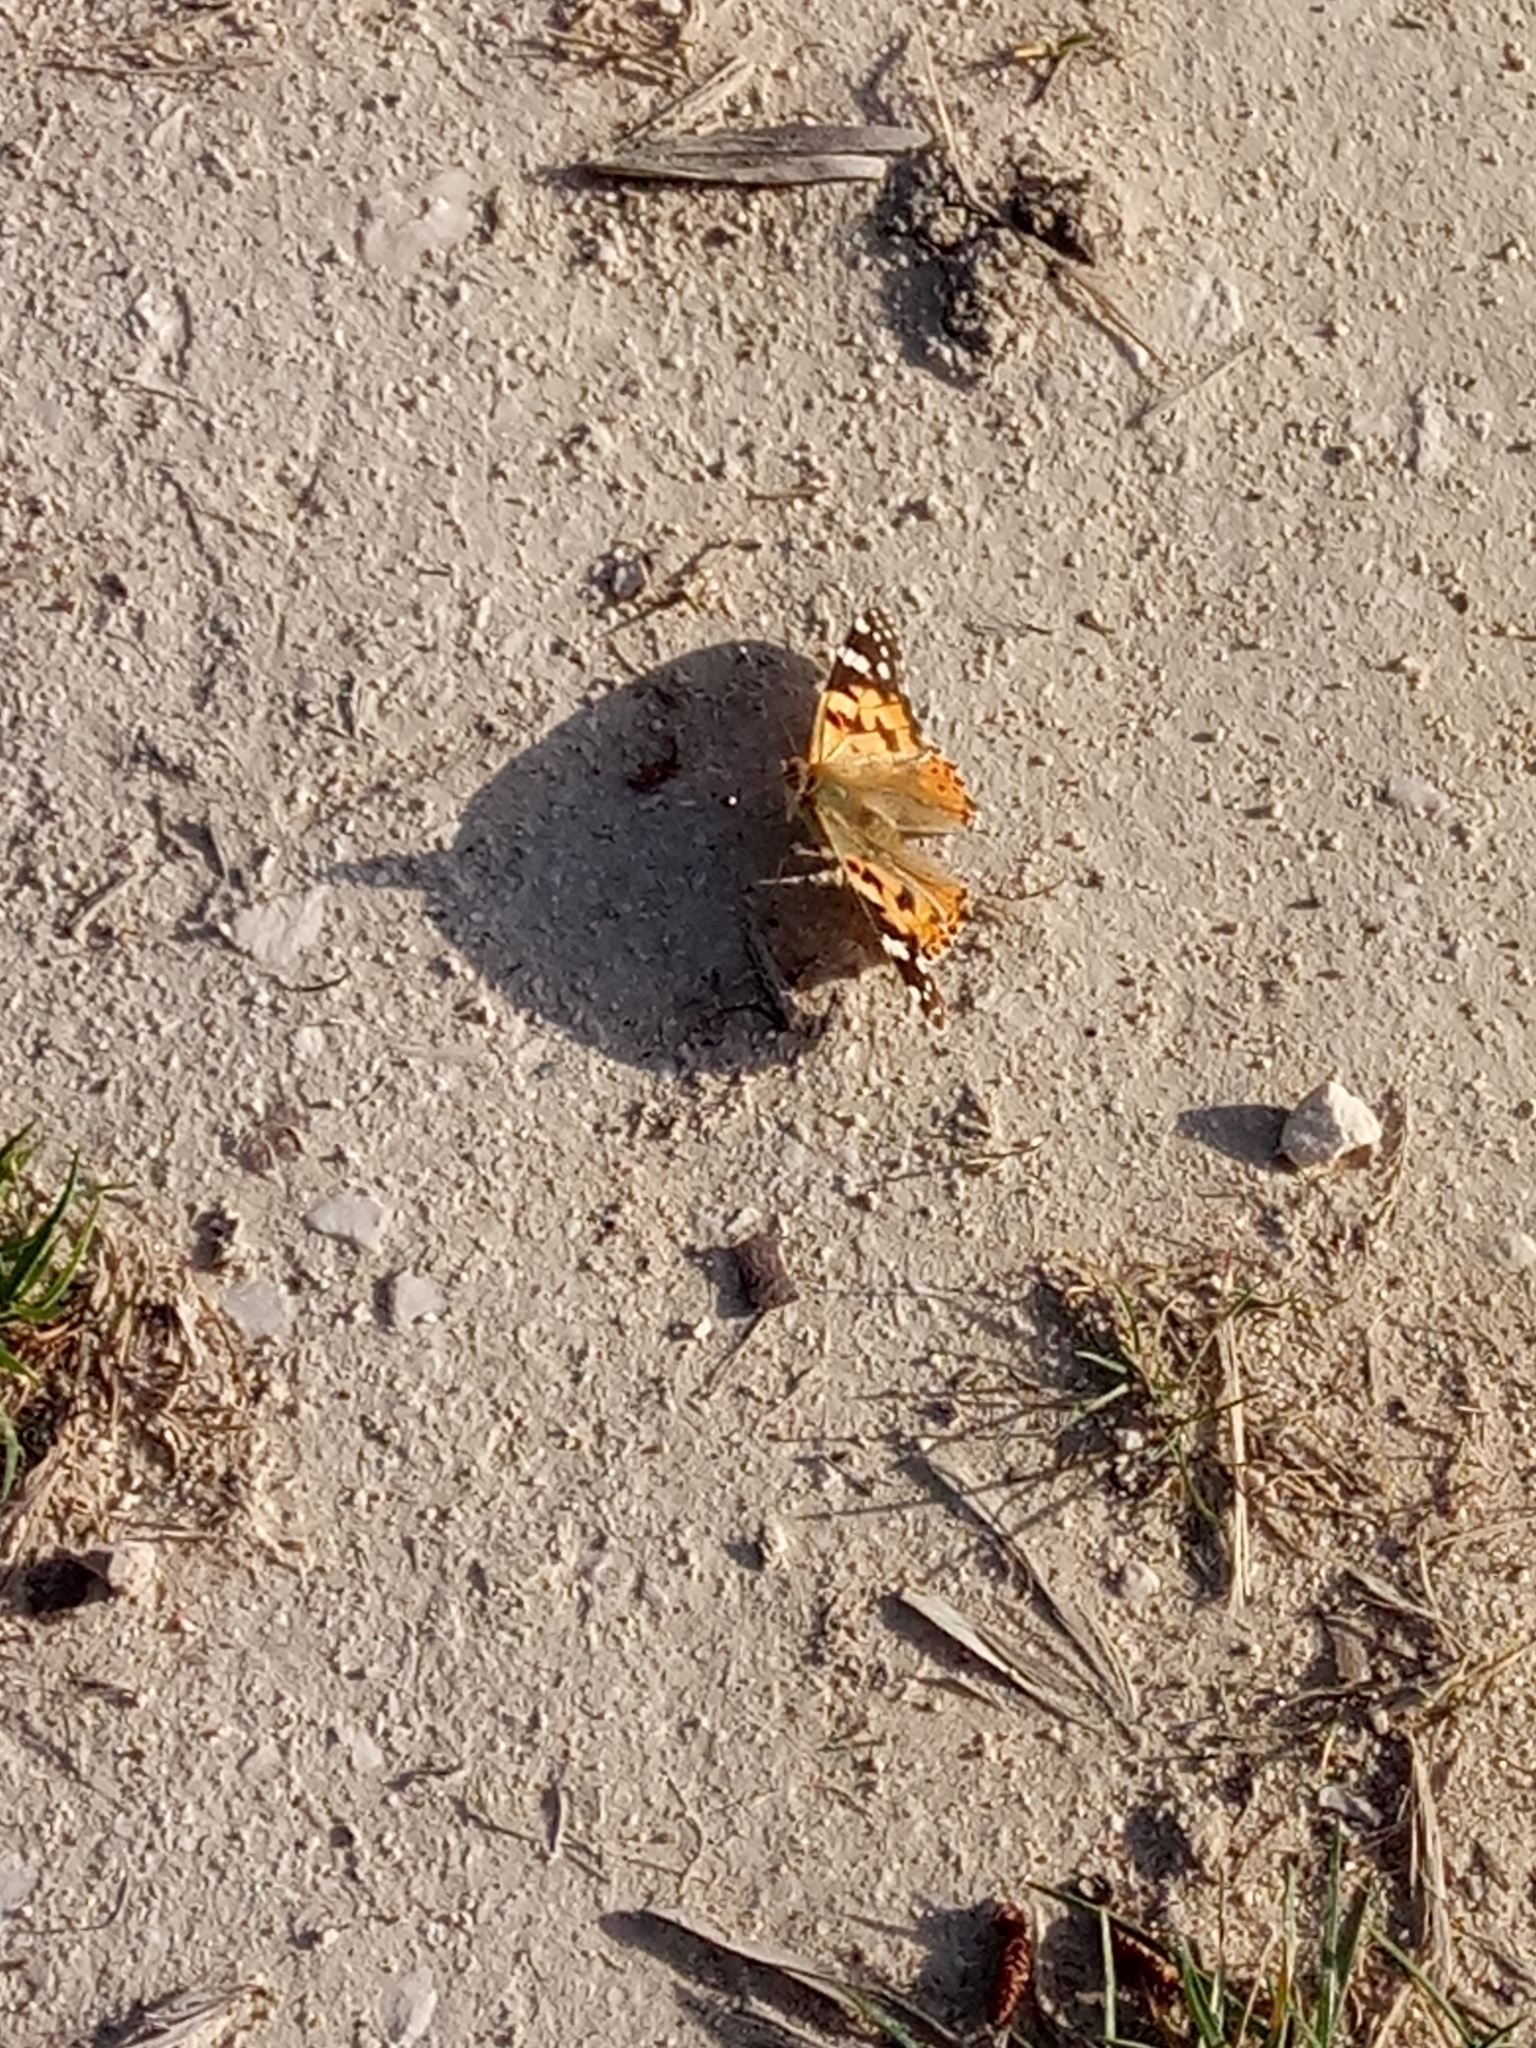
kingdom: Animalia
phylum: Arthropoda
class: Insecta
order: Lepidoptera
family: Nymphalidae
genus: Vanessa
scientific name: Vanessa cardui
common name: Painted lady
